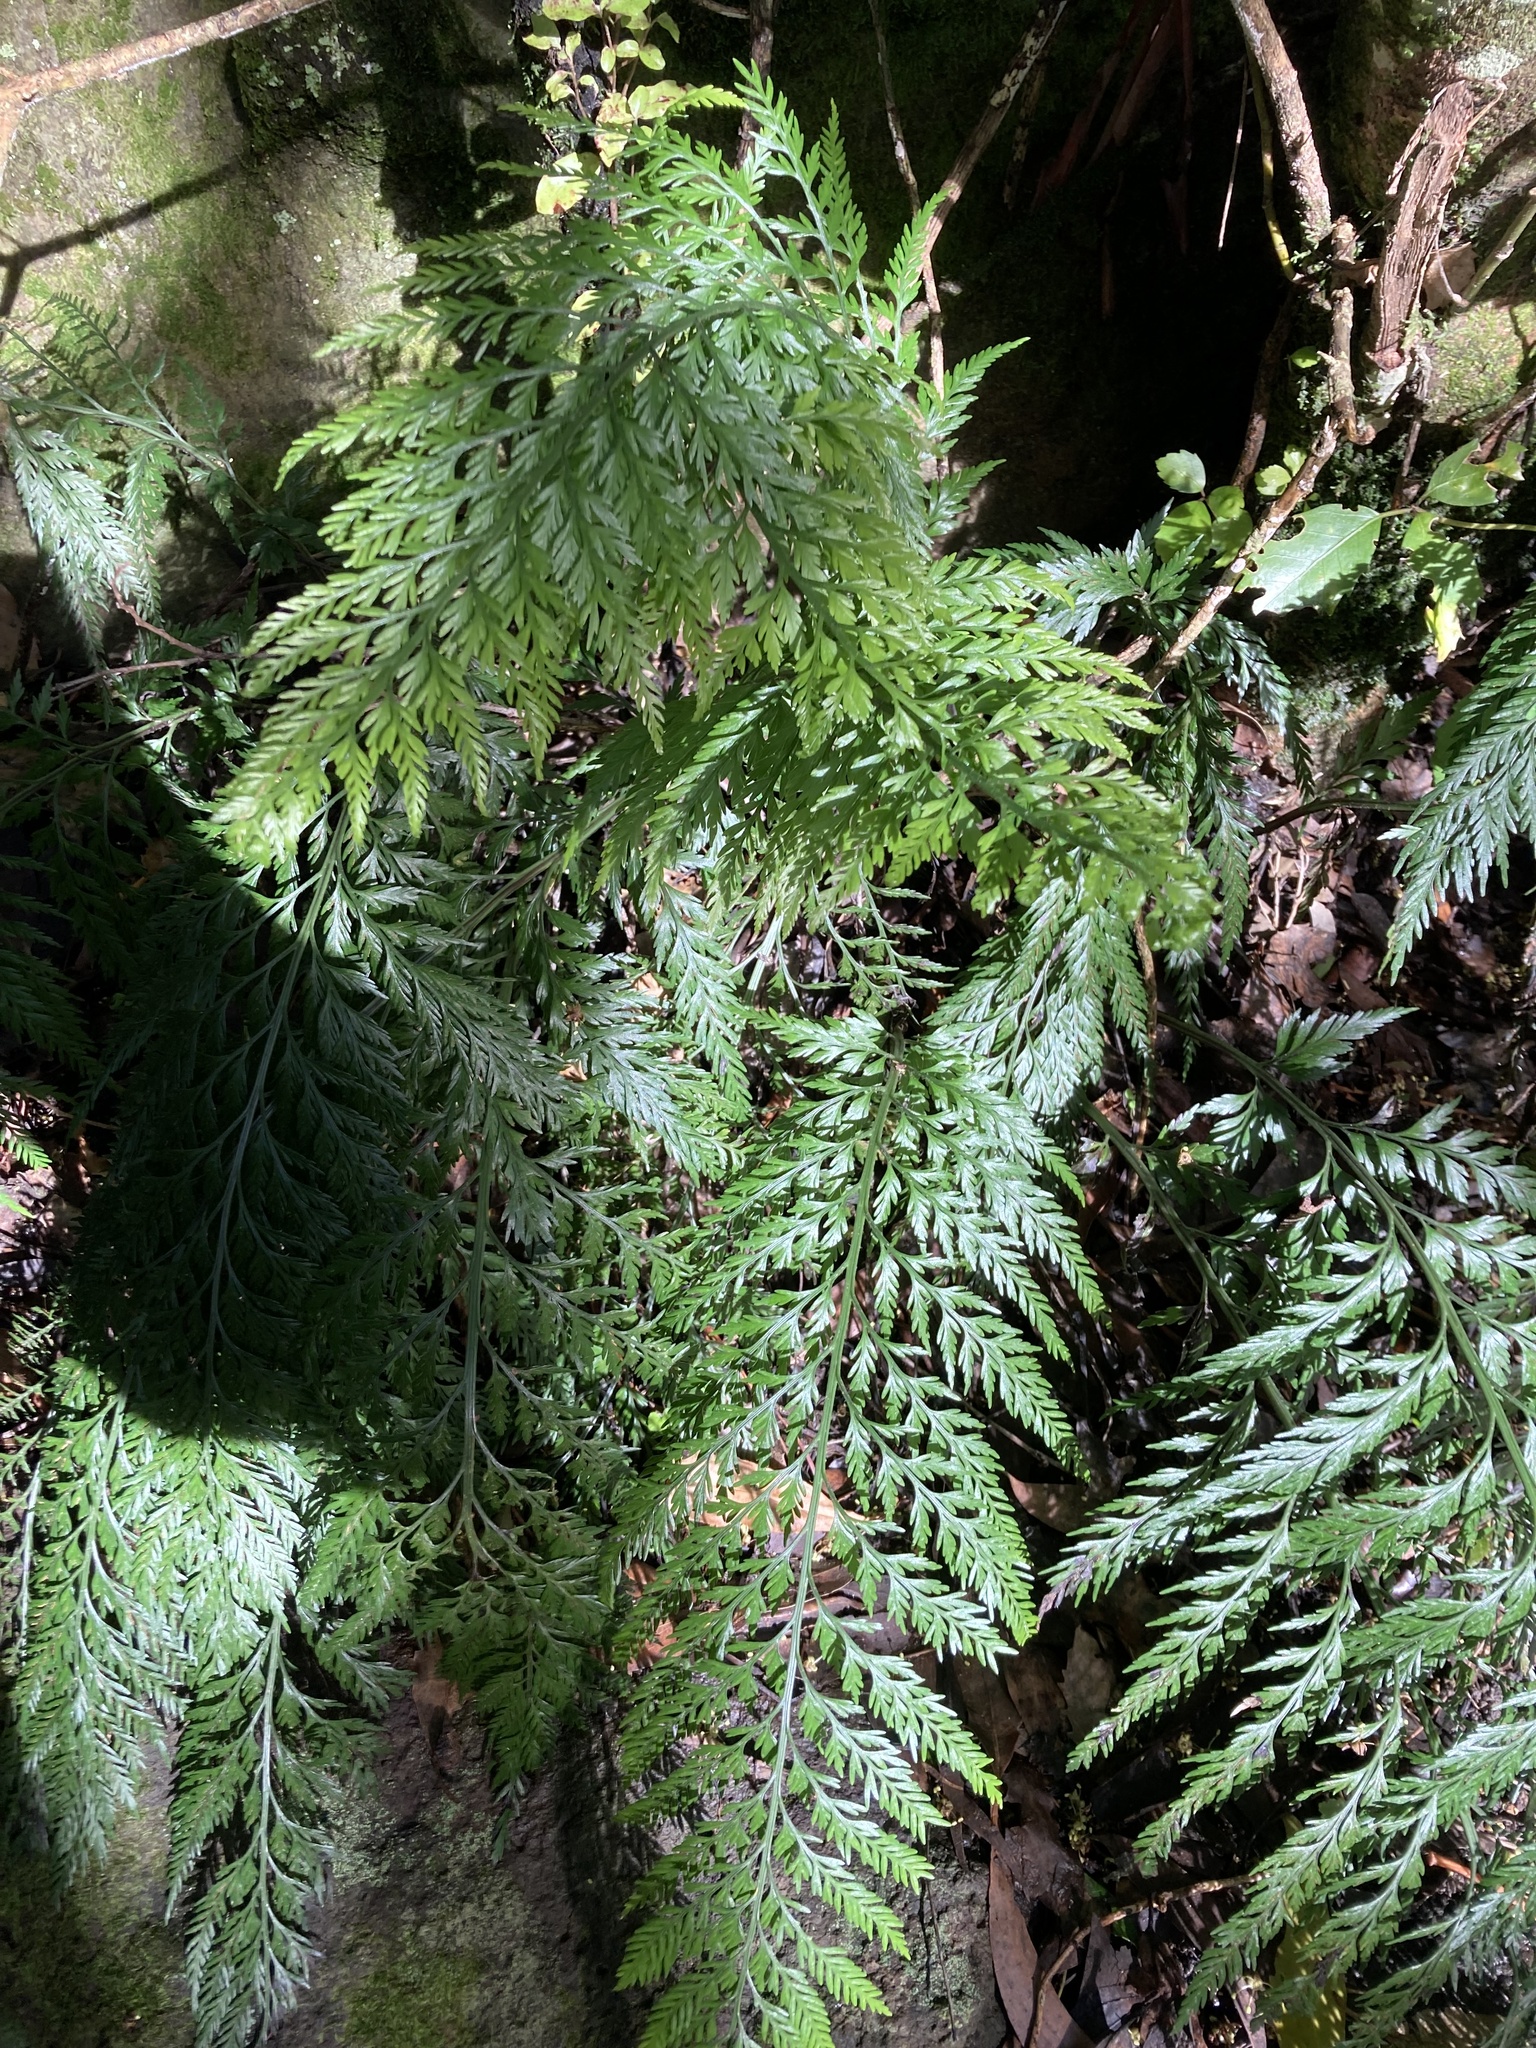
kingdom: Plantae
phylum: Tracheophyta
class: Polypodiopsida
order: Polypodiales
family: Aspleniaceae
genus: Asplenium
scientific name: Asplenium
